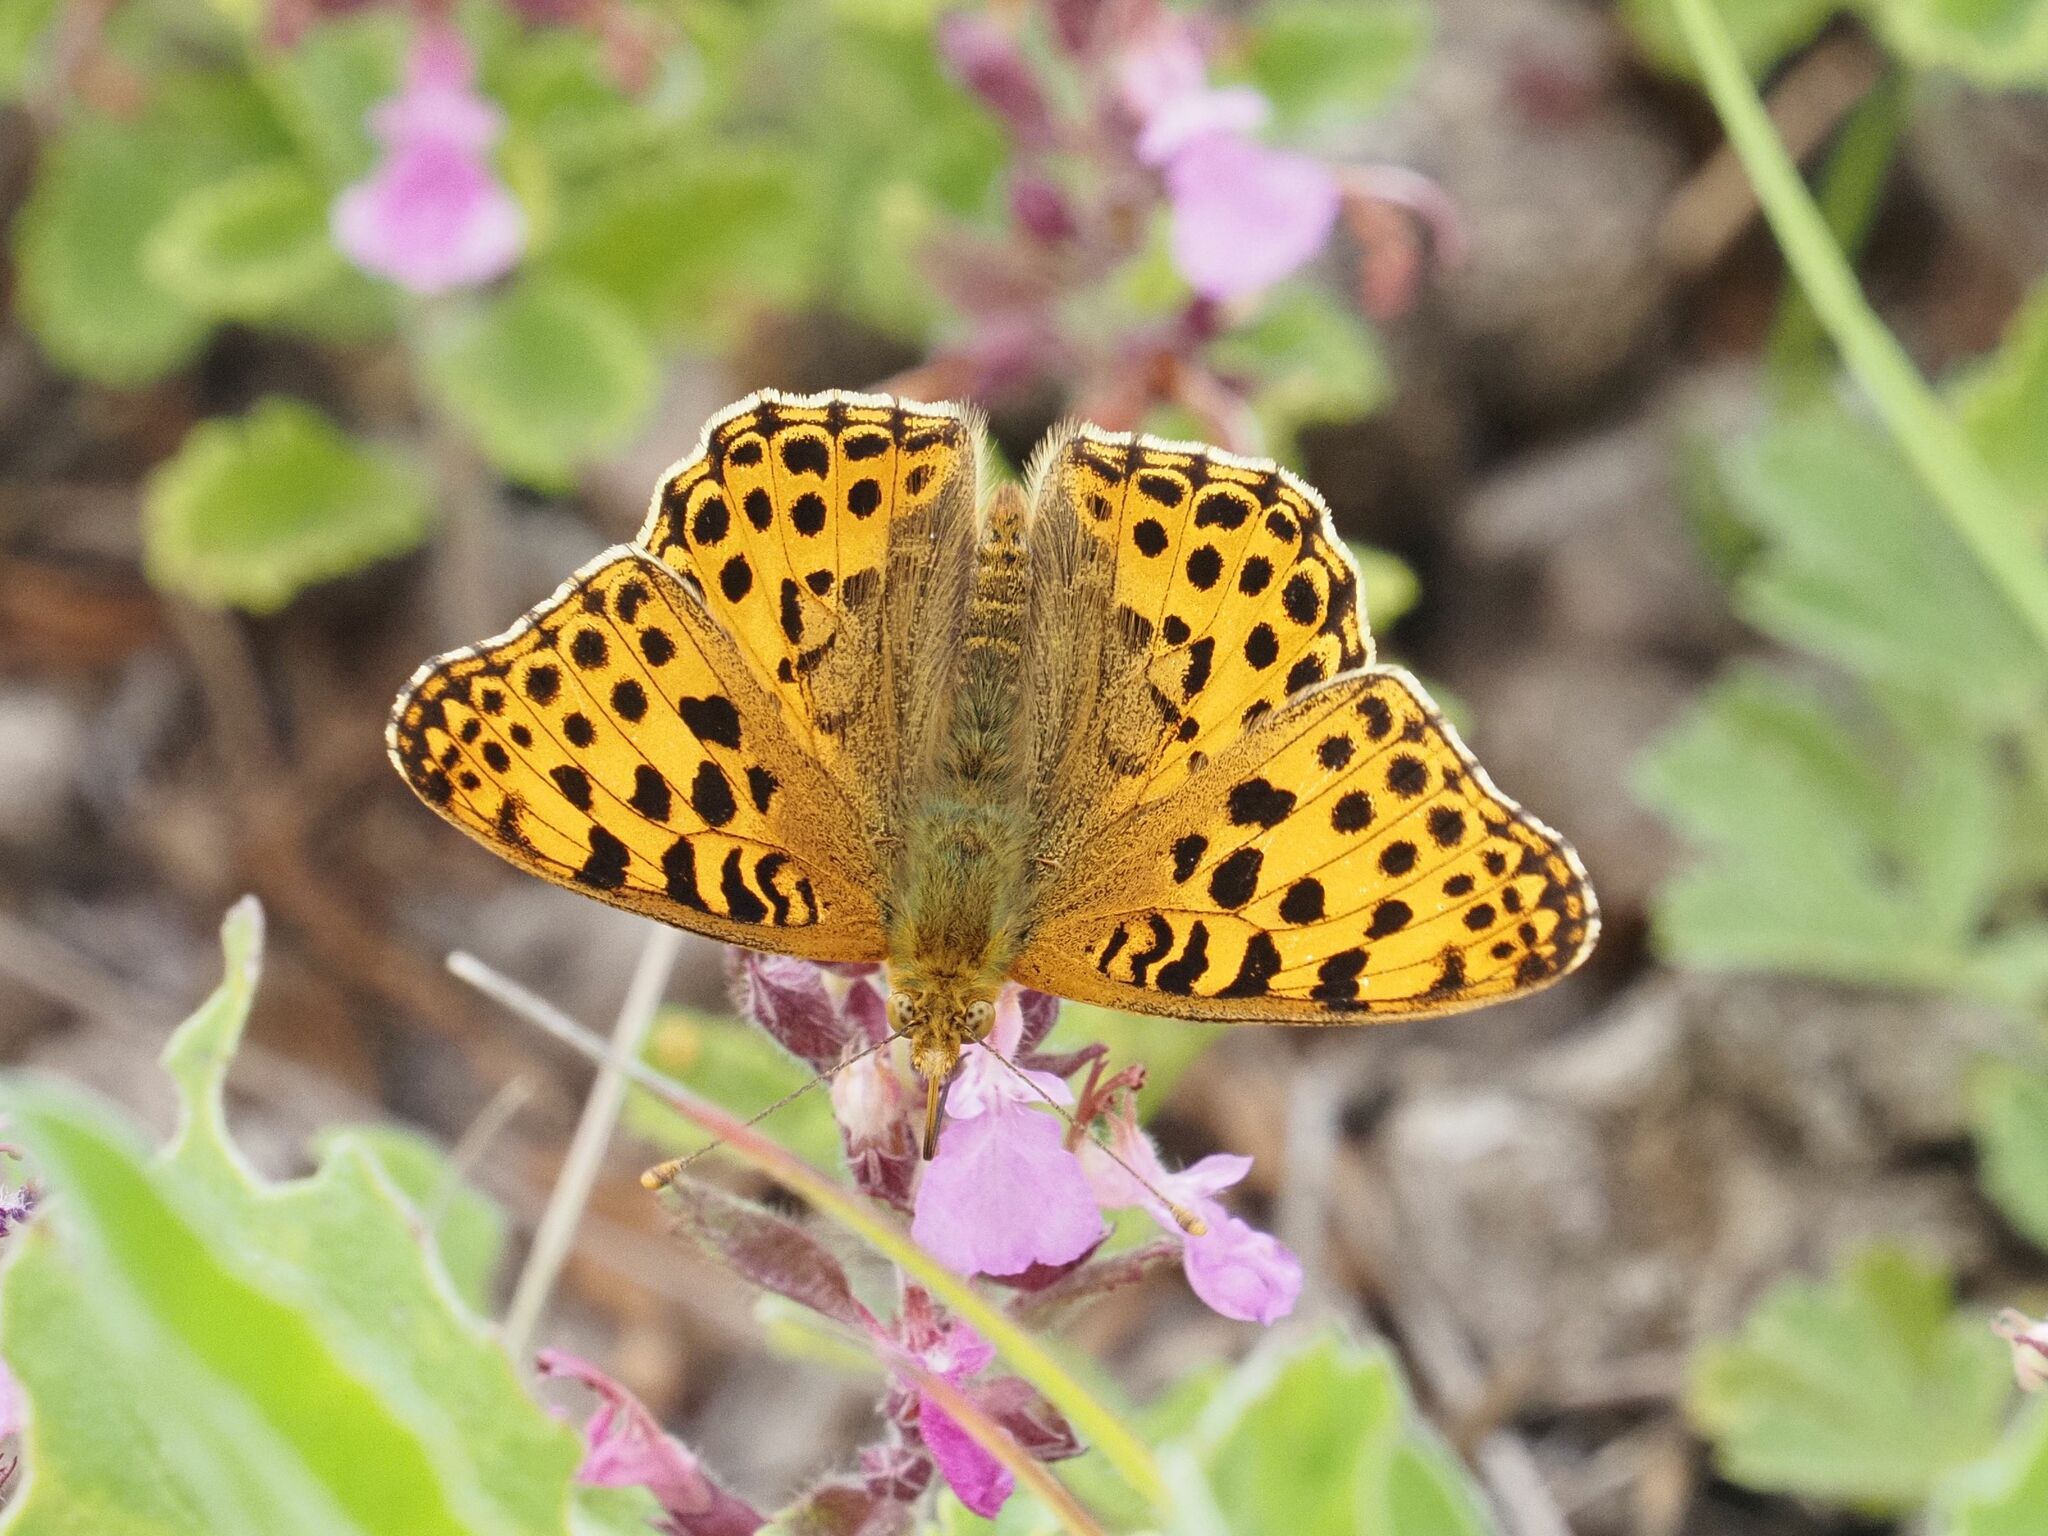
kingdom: Animalia
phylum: Arthropoda
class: Insecta
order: Lepidoptera
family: Nymphalidae
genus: Issoria
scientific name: Issoria lathonia
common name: Queen of spain fritillary
